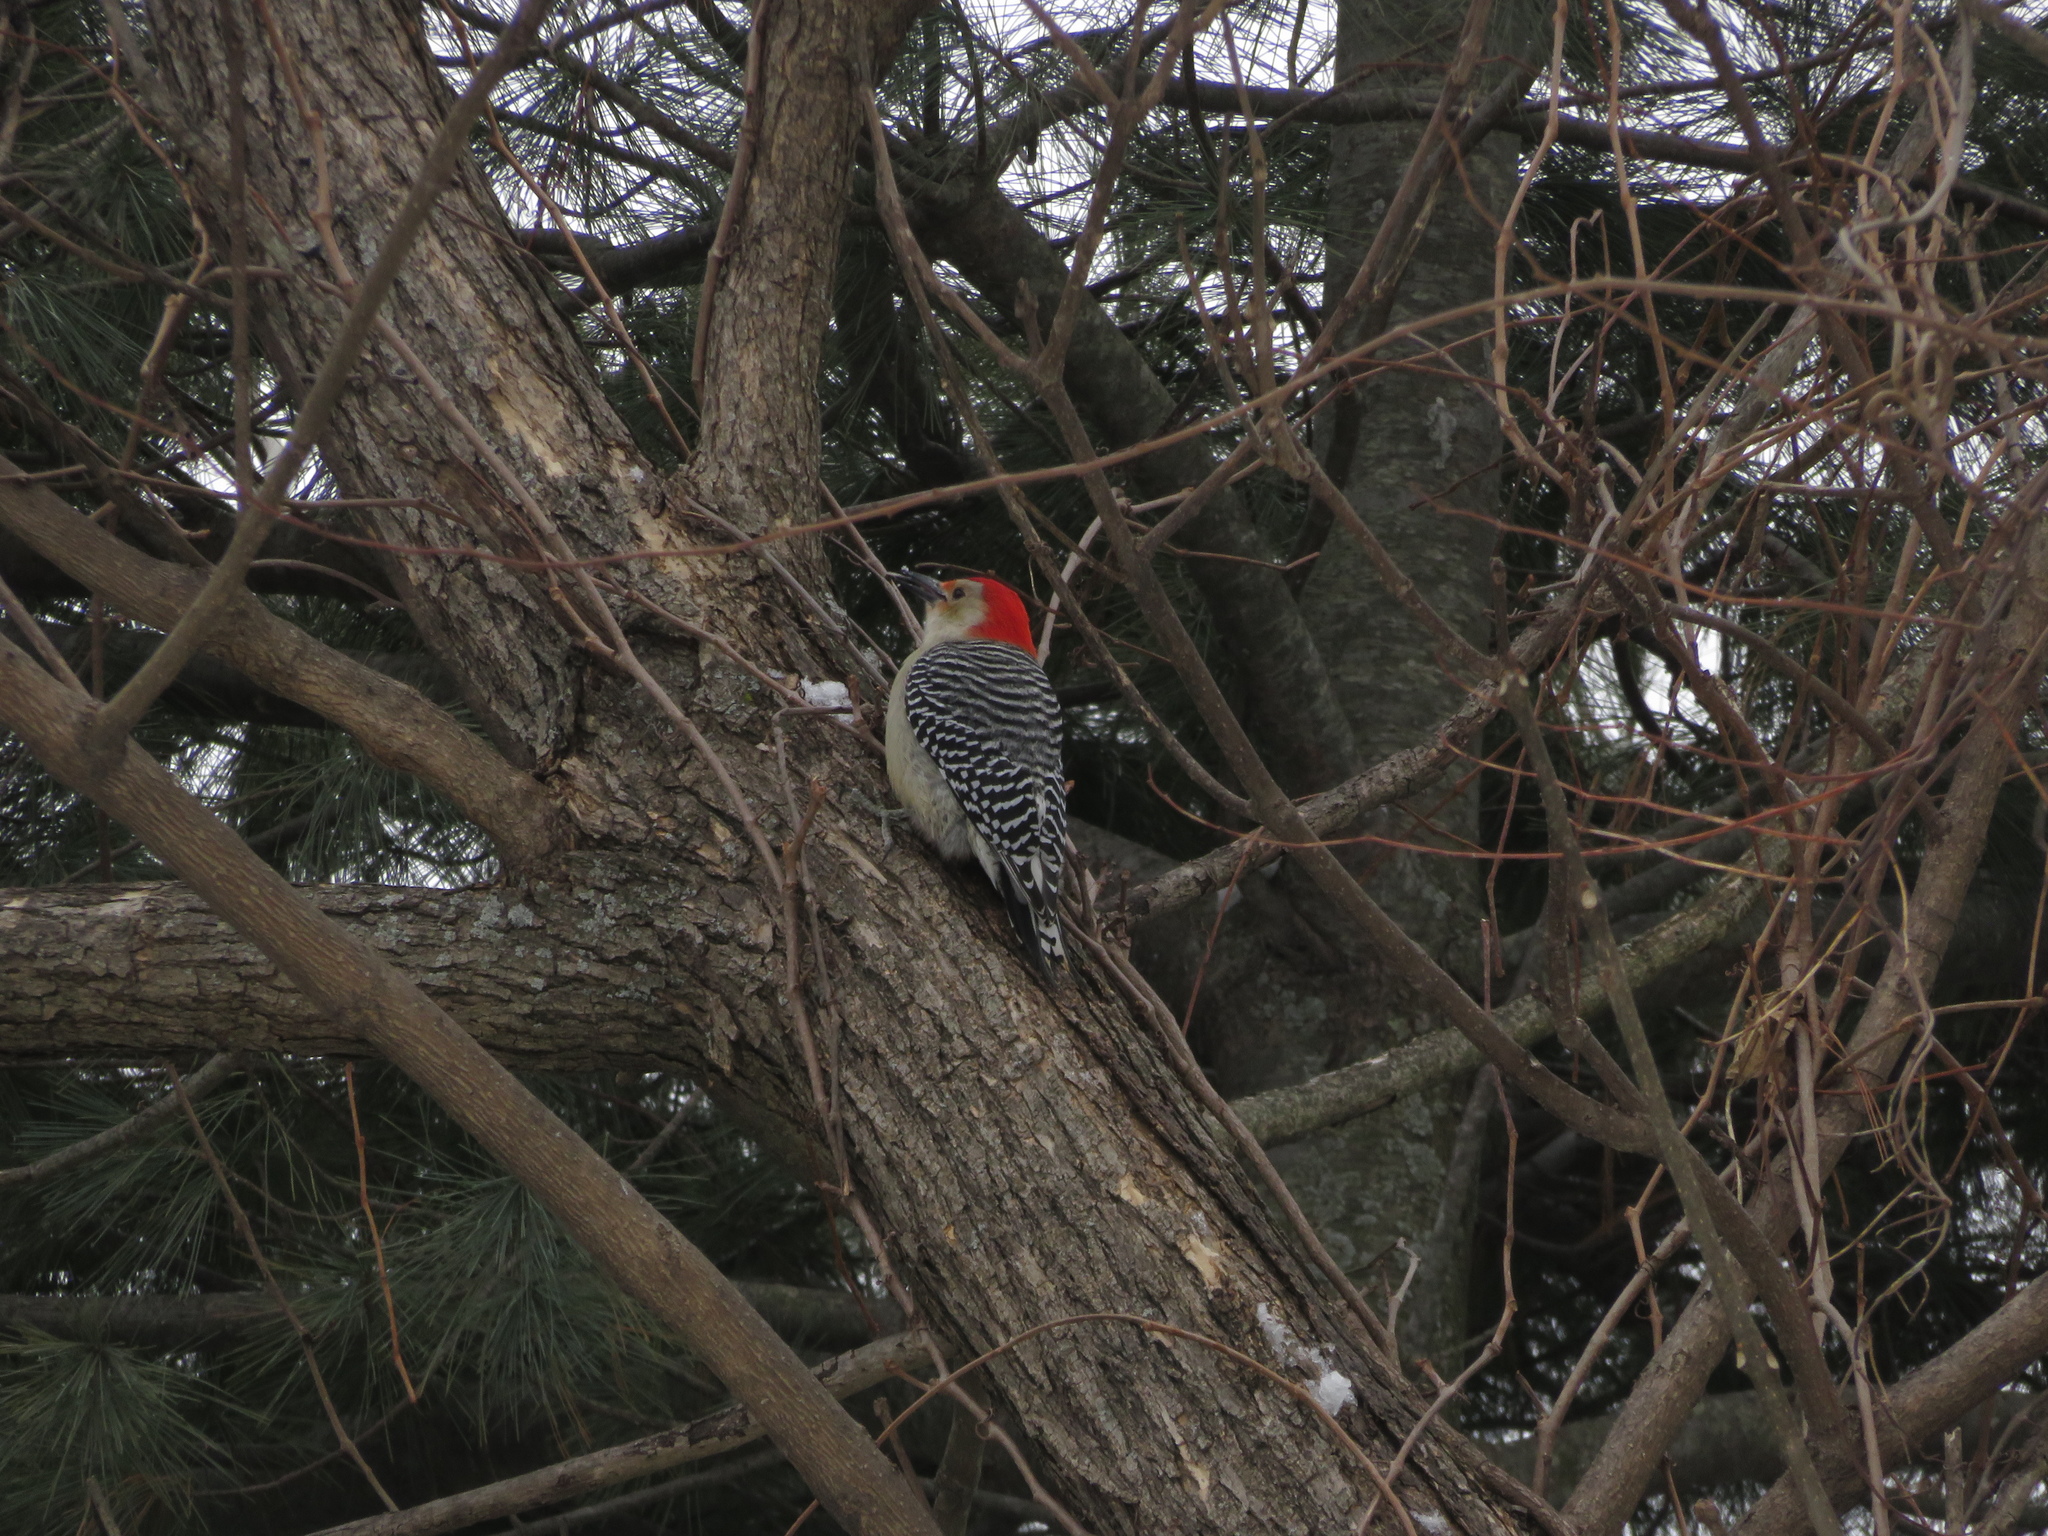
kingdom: Animalia
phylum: Chordata
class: Aves
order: Piciformes
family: Picidae
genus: Melanerpes
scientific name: Melanerpes carolinus
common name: Red-bellied woodpecker
